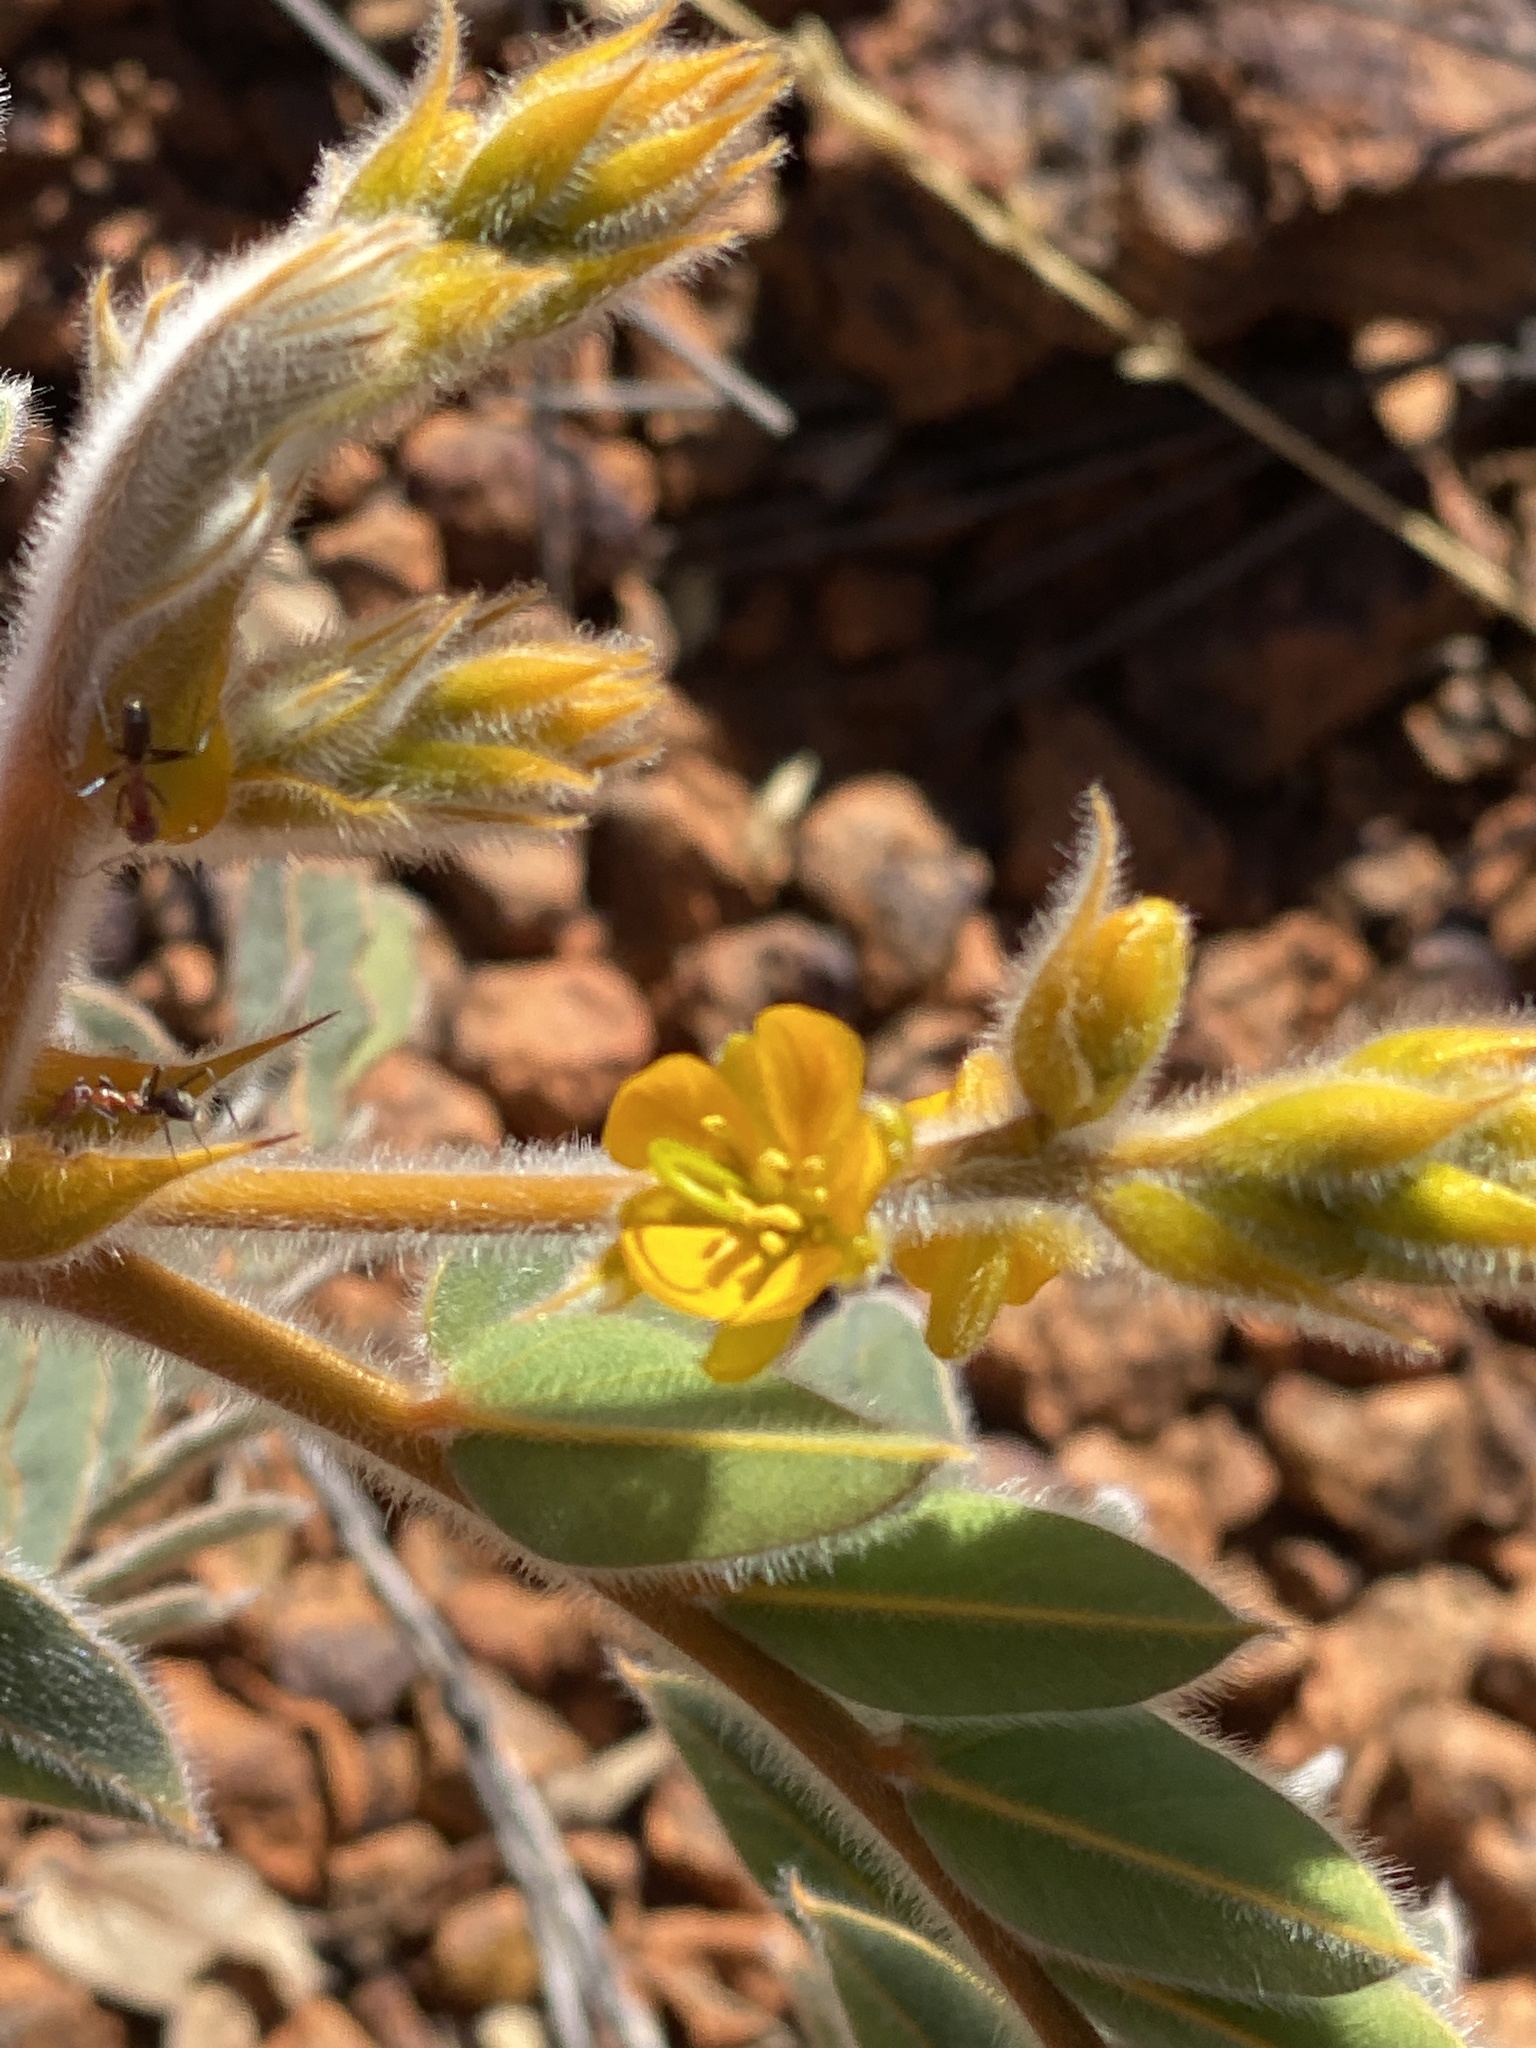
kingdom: Plantae
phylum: Tracheophyta
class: Magnoliopsida
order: Fabales
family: Fabaceae
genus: Senna
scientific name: Senna notabilis
